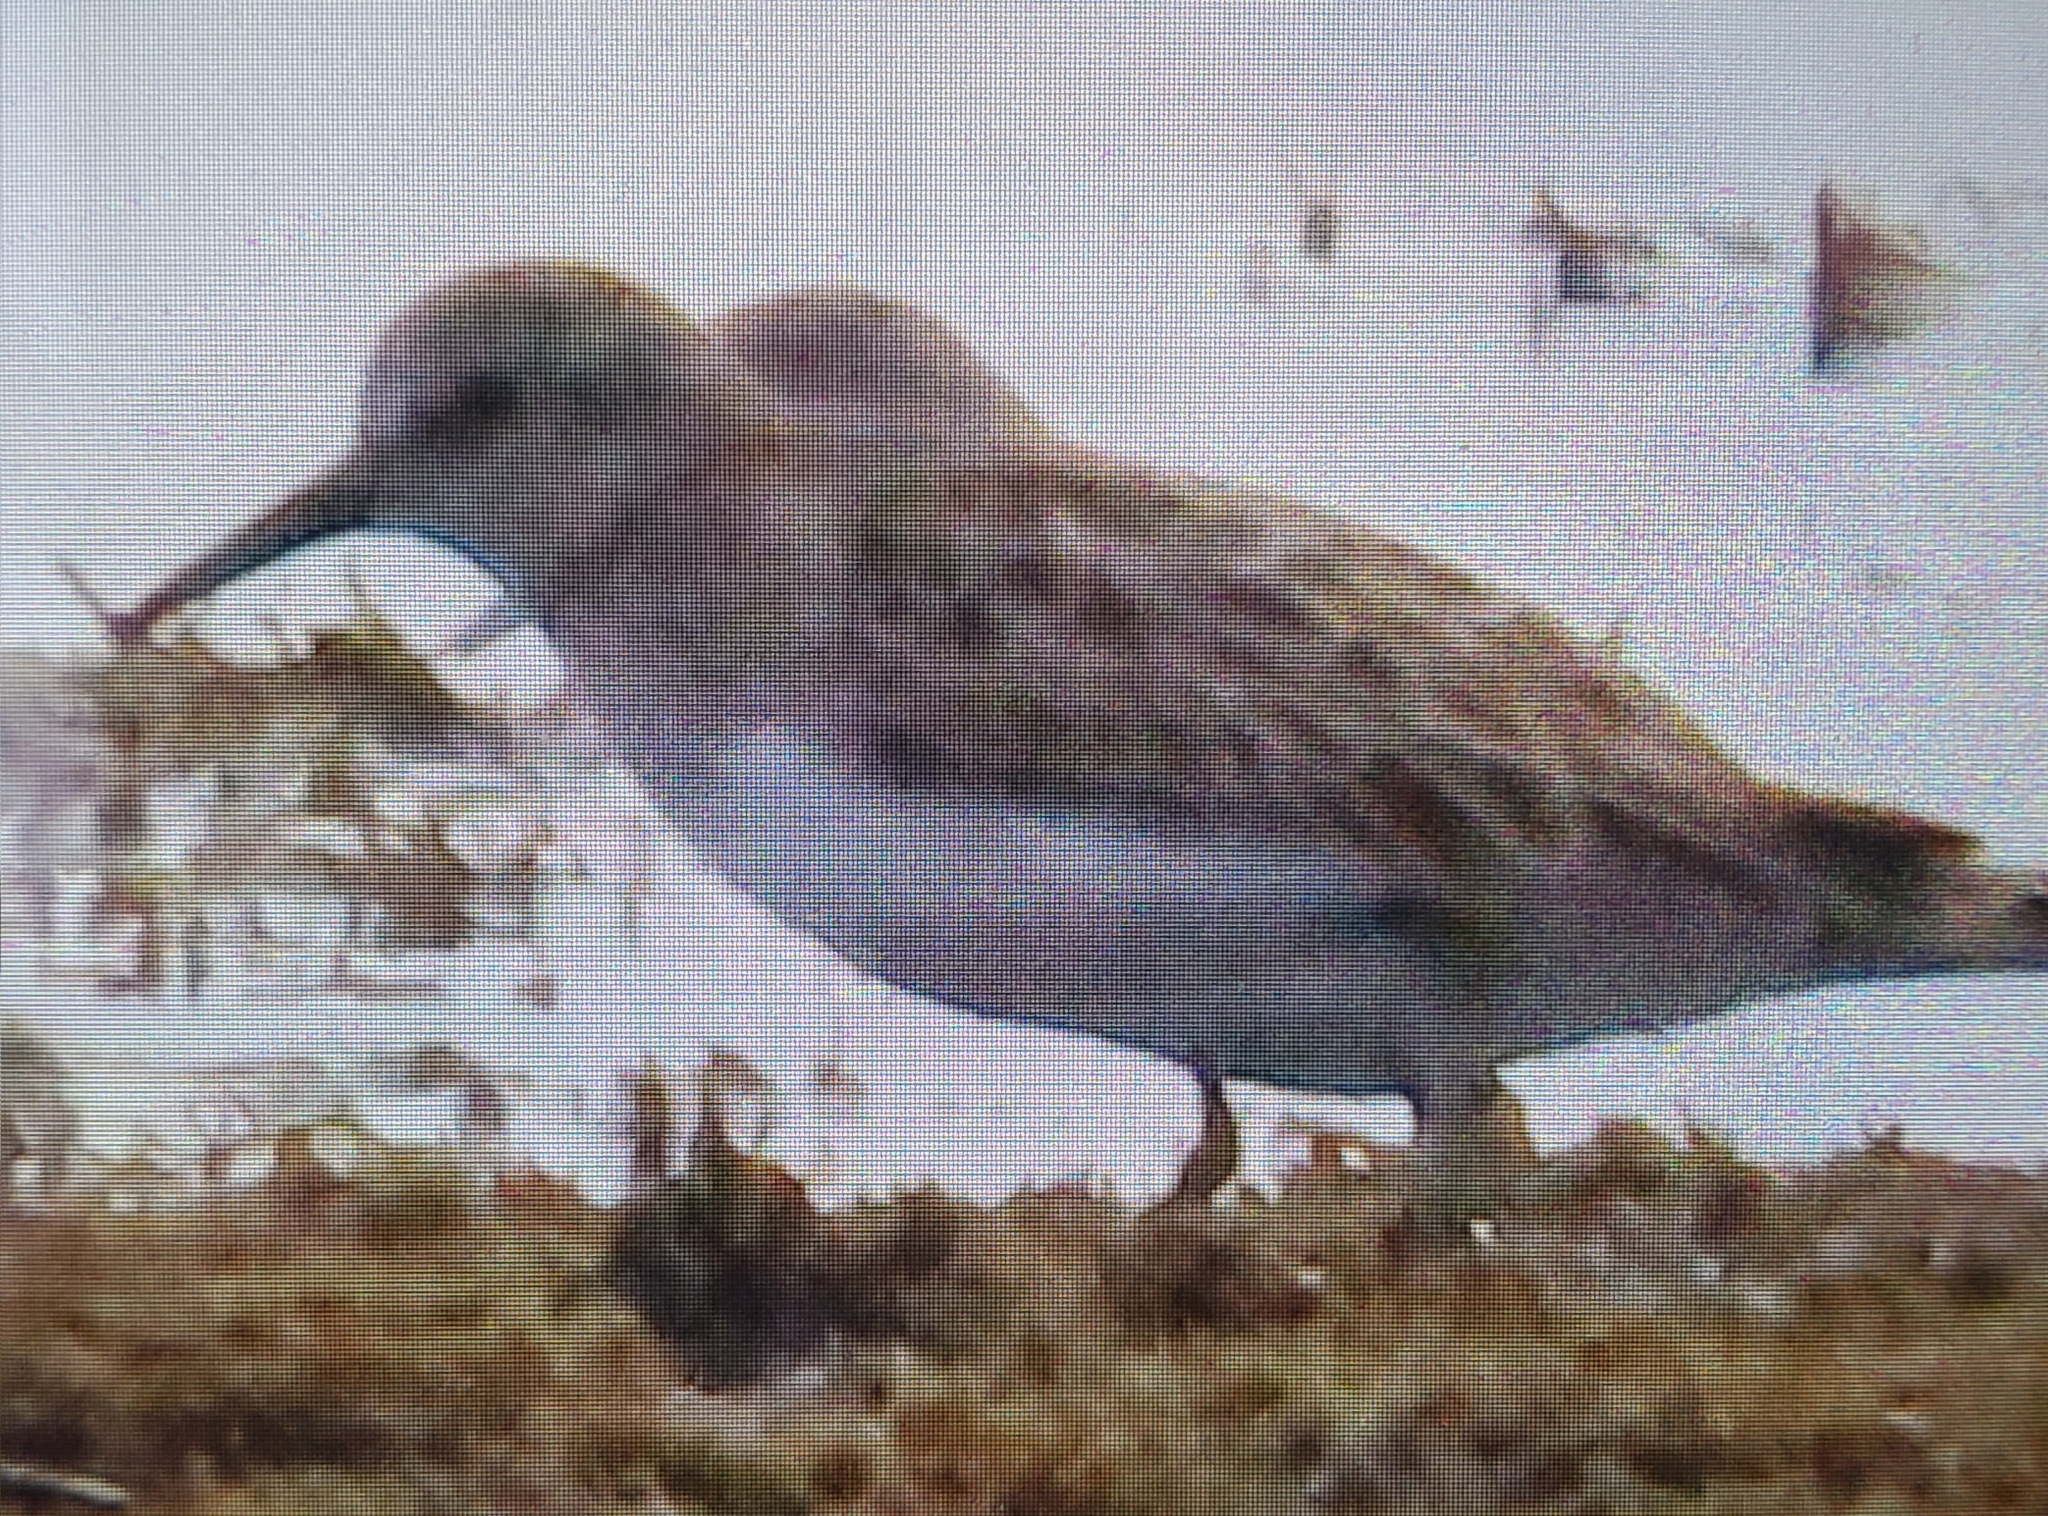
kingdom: Animalia
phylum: Chordata
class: Aves
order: Charadriiformes
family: Scolopacidae
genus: Calidris
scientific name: Calidris minutilla
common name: Least sandpiper
